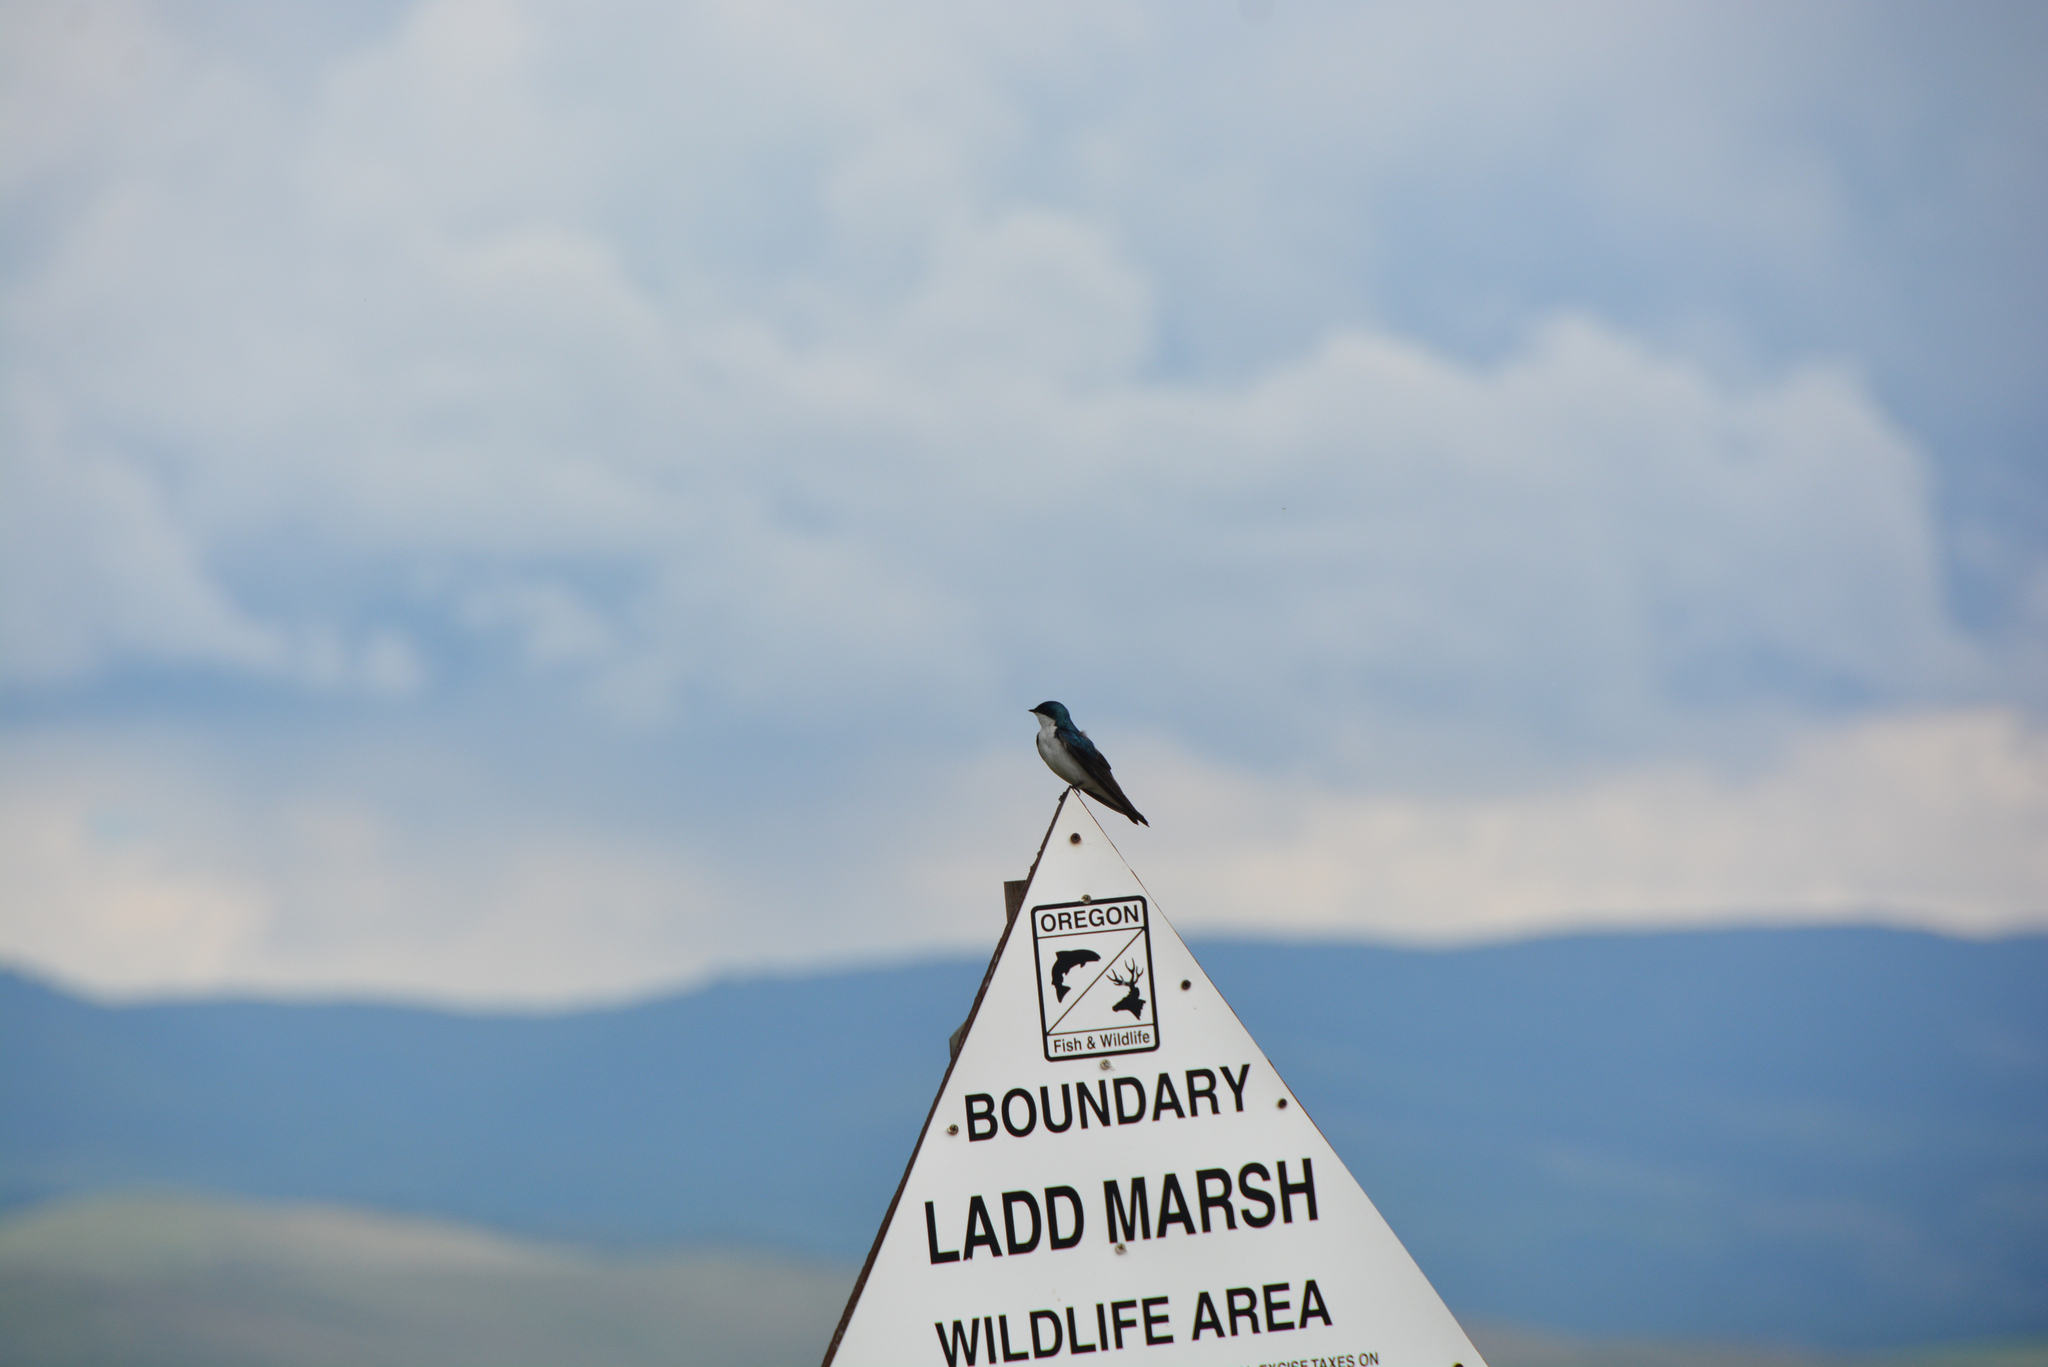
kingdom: Animalia
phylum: Chordata
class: Aves
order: Passeriformes
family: Hirundinidae
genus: Tachycineta
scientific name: Tachycineta bicolor
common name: Tree swallow
